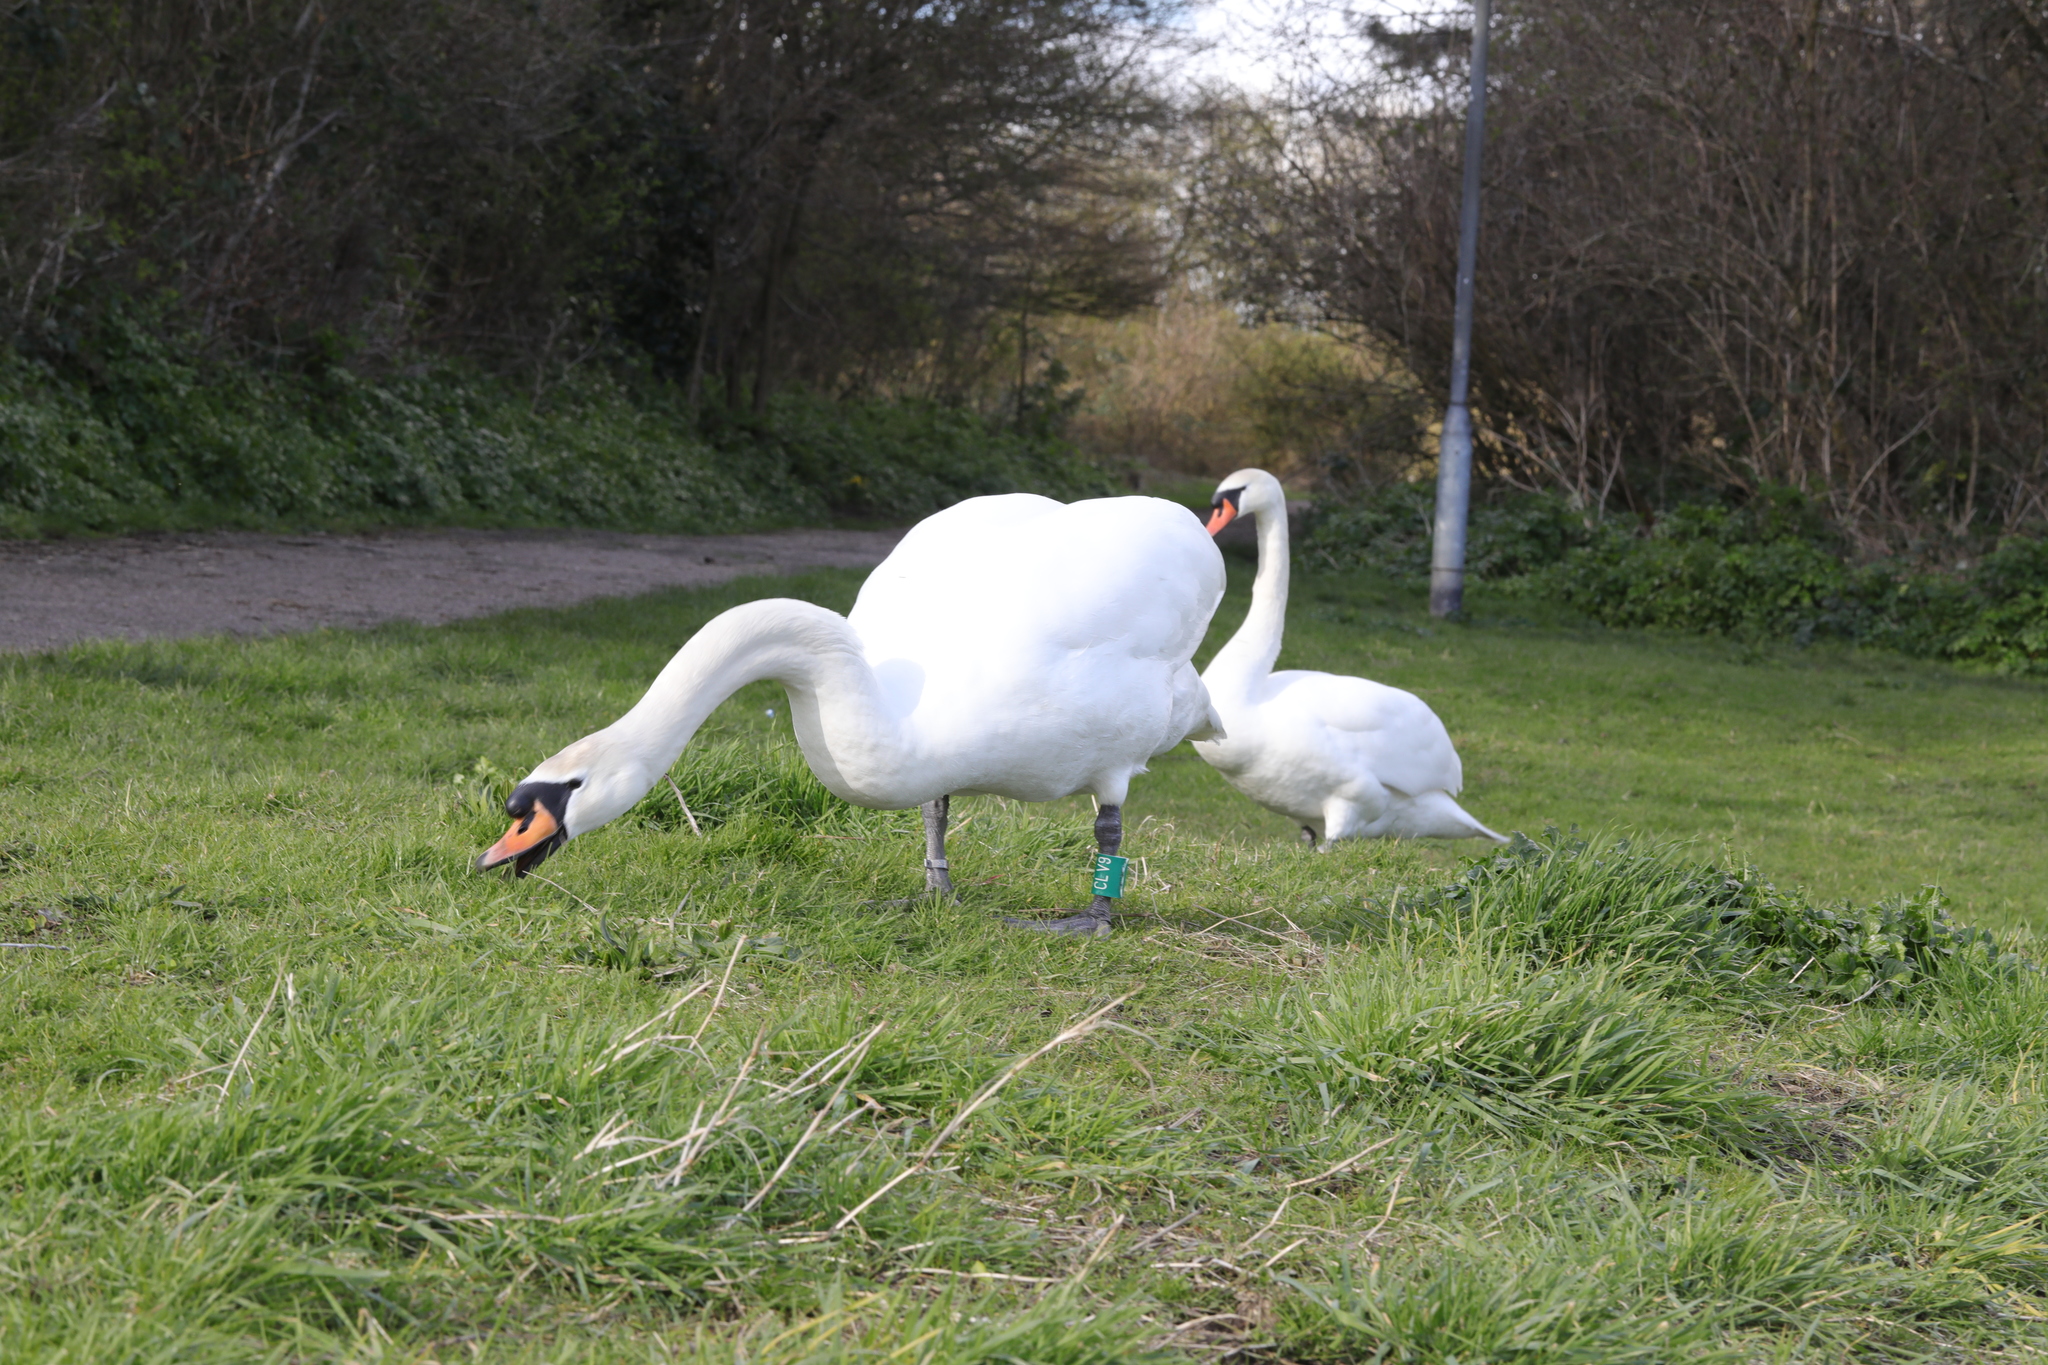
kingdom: Animalia
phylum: Chordata
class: Aves
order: Anseriformes
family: Anatidae
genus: Cygnus
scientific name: Cygnus olor
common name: Mute swan
